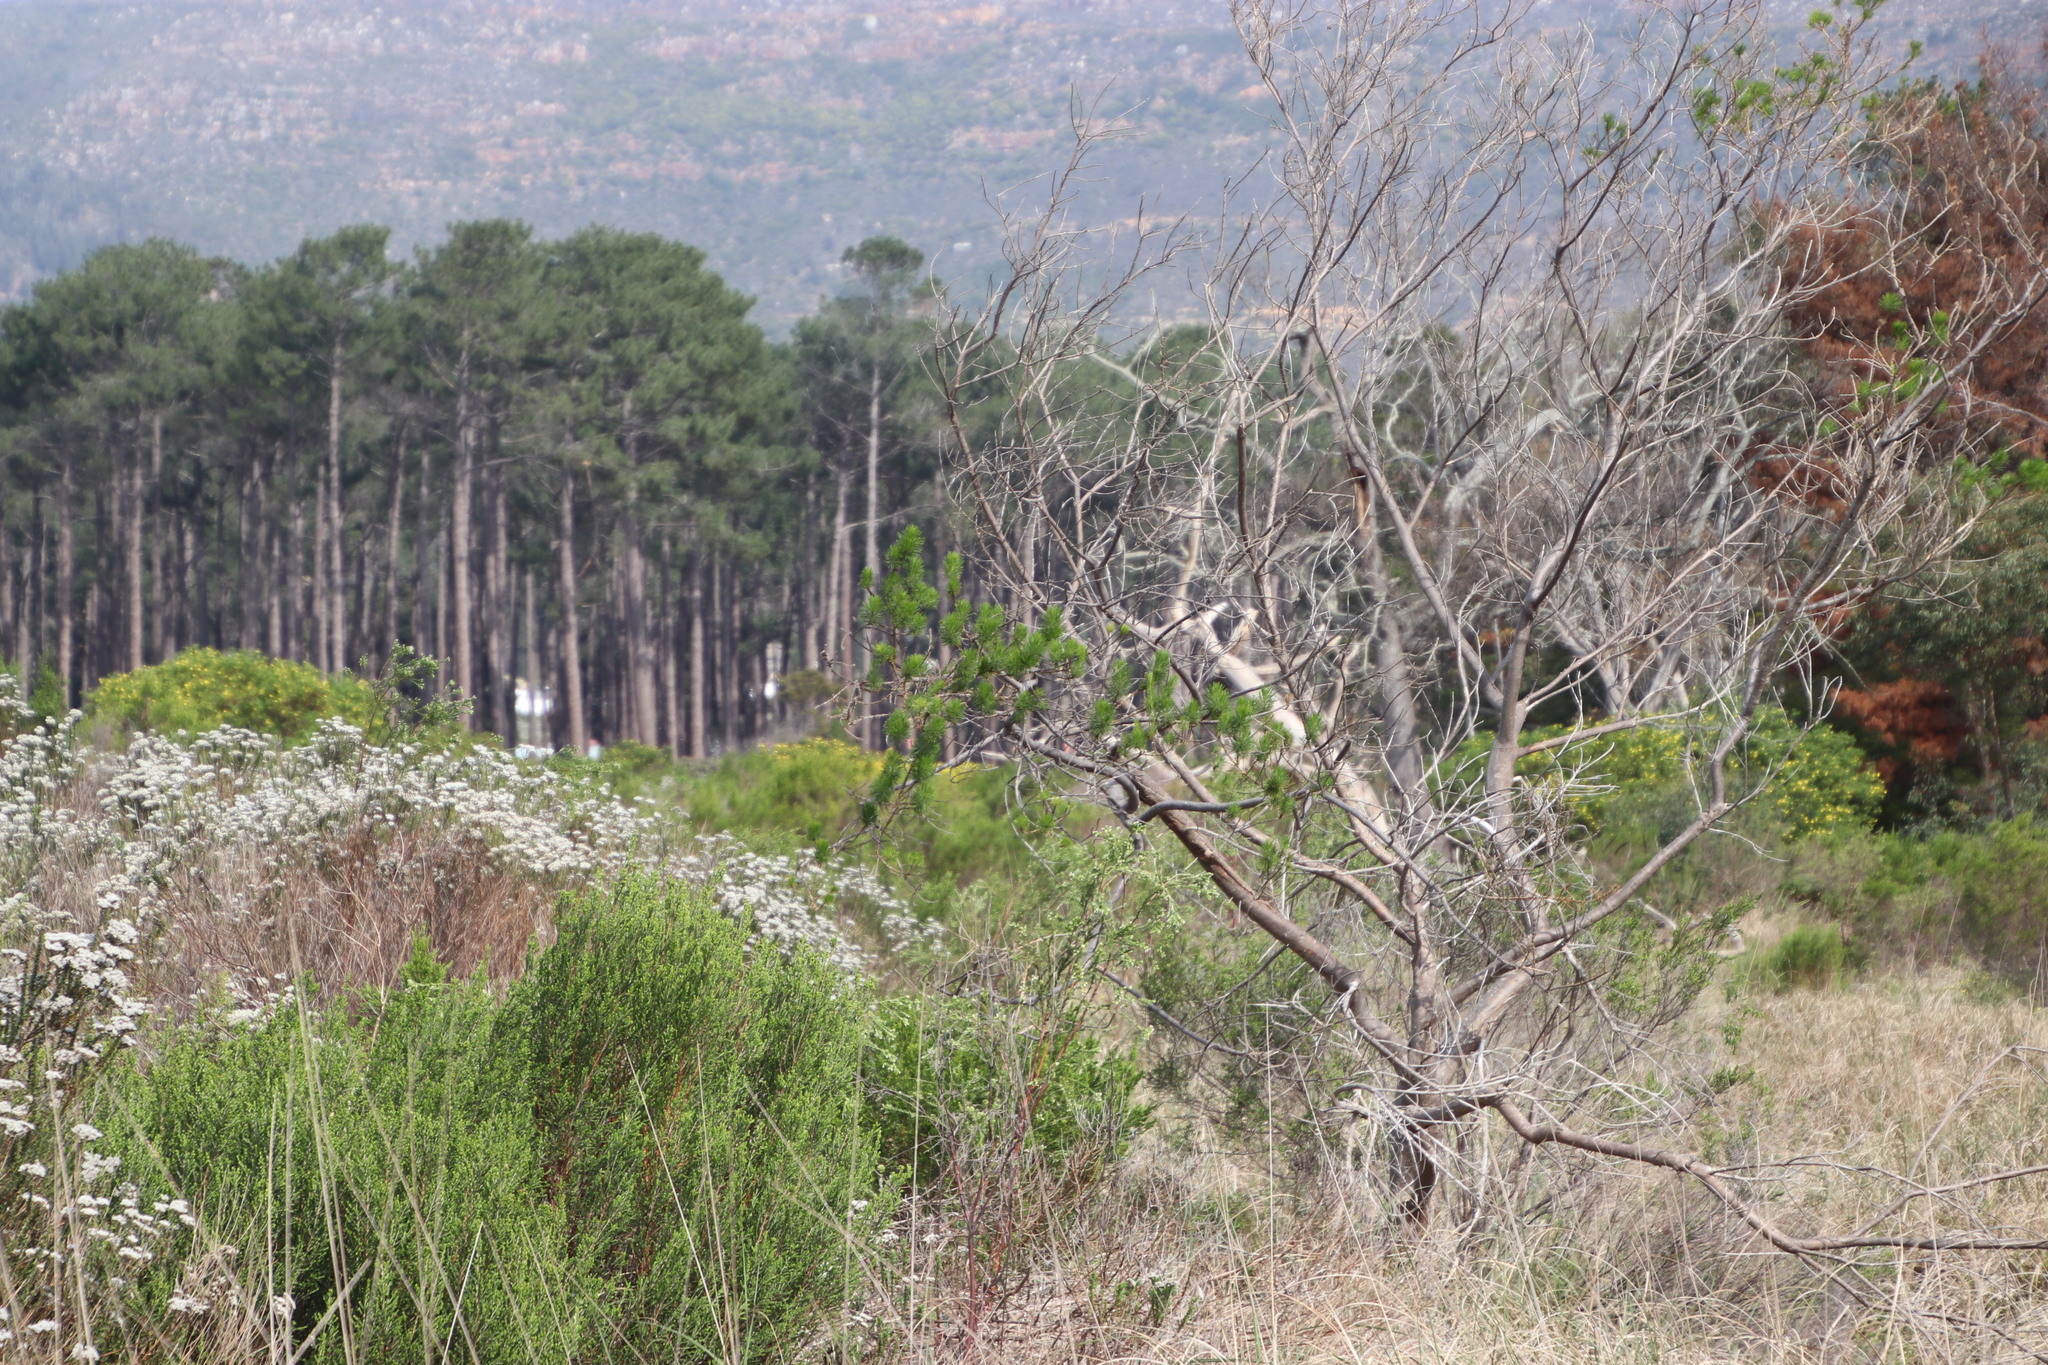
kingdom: Plantae
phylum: Tracheophyta
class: Magnoliopsida
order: Fabales
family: Fabaceae
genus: Psoralea
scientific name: Psoralea pinnata
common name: African scurfpea
